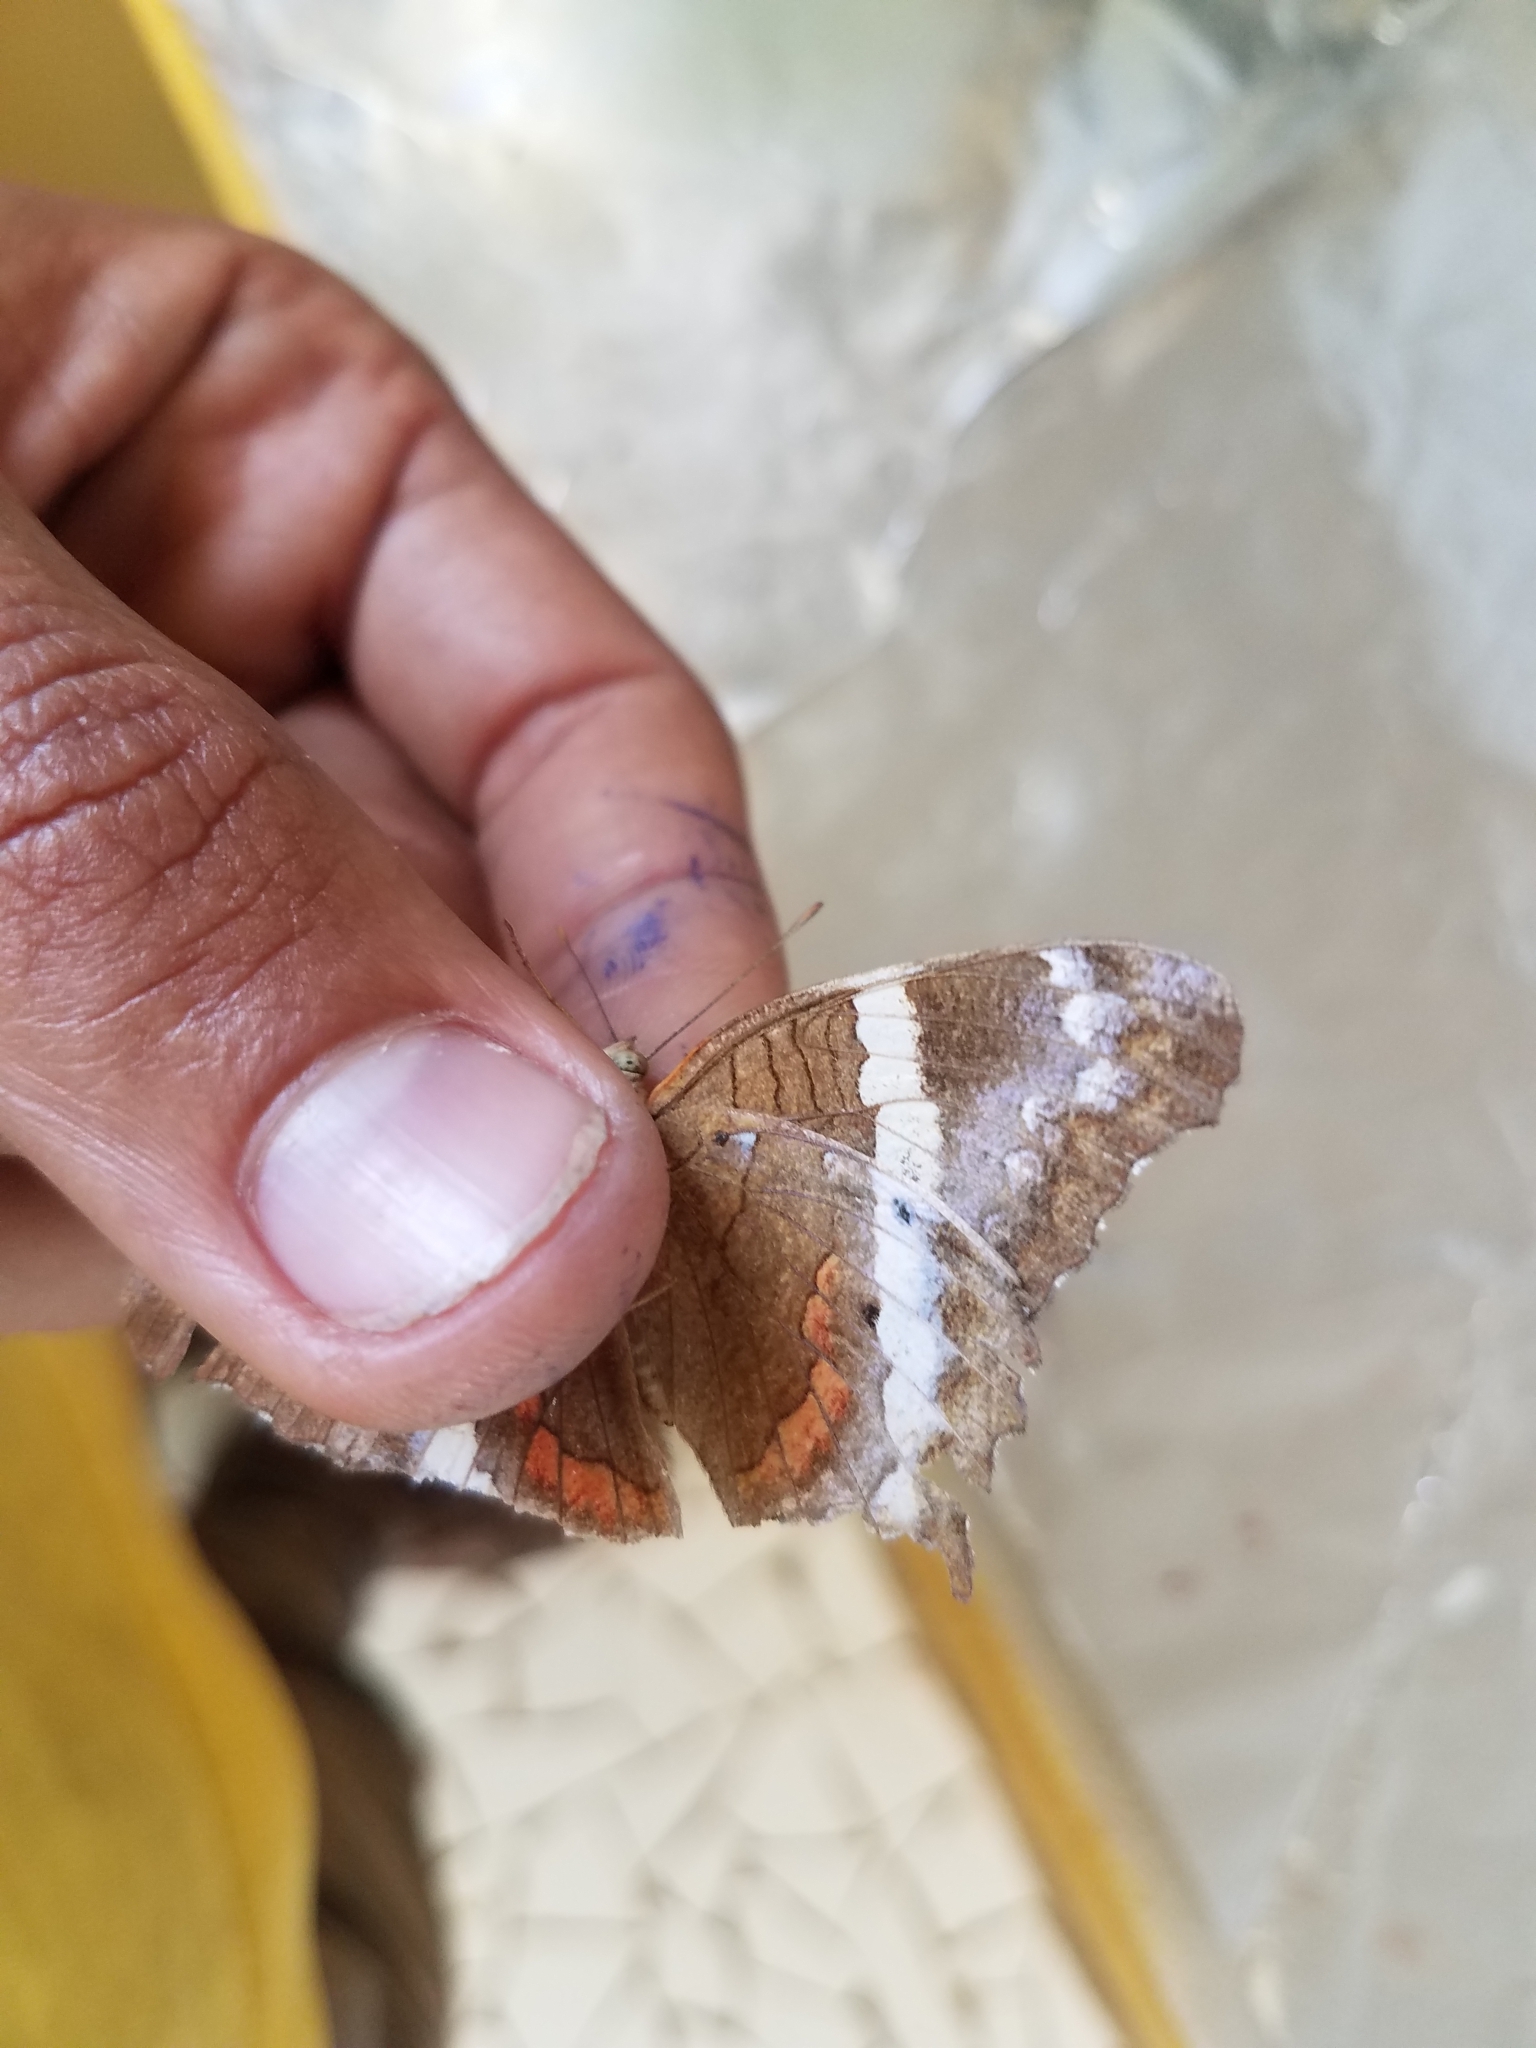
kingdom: Animalia
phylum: Arthropoda
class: Insecta
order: Lepidoptera
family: Nymphalidae
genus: Anartia
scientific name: Anartia fatima
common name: Banded peacock
